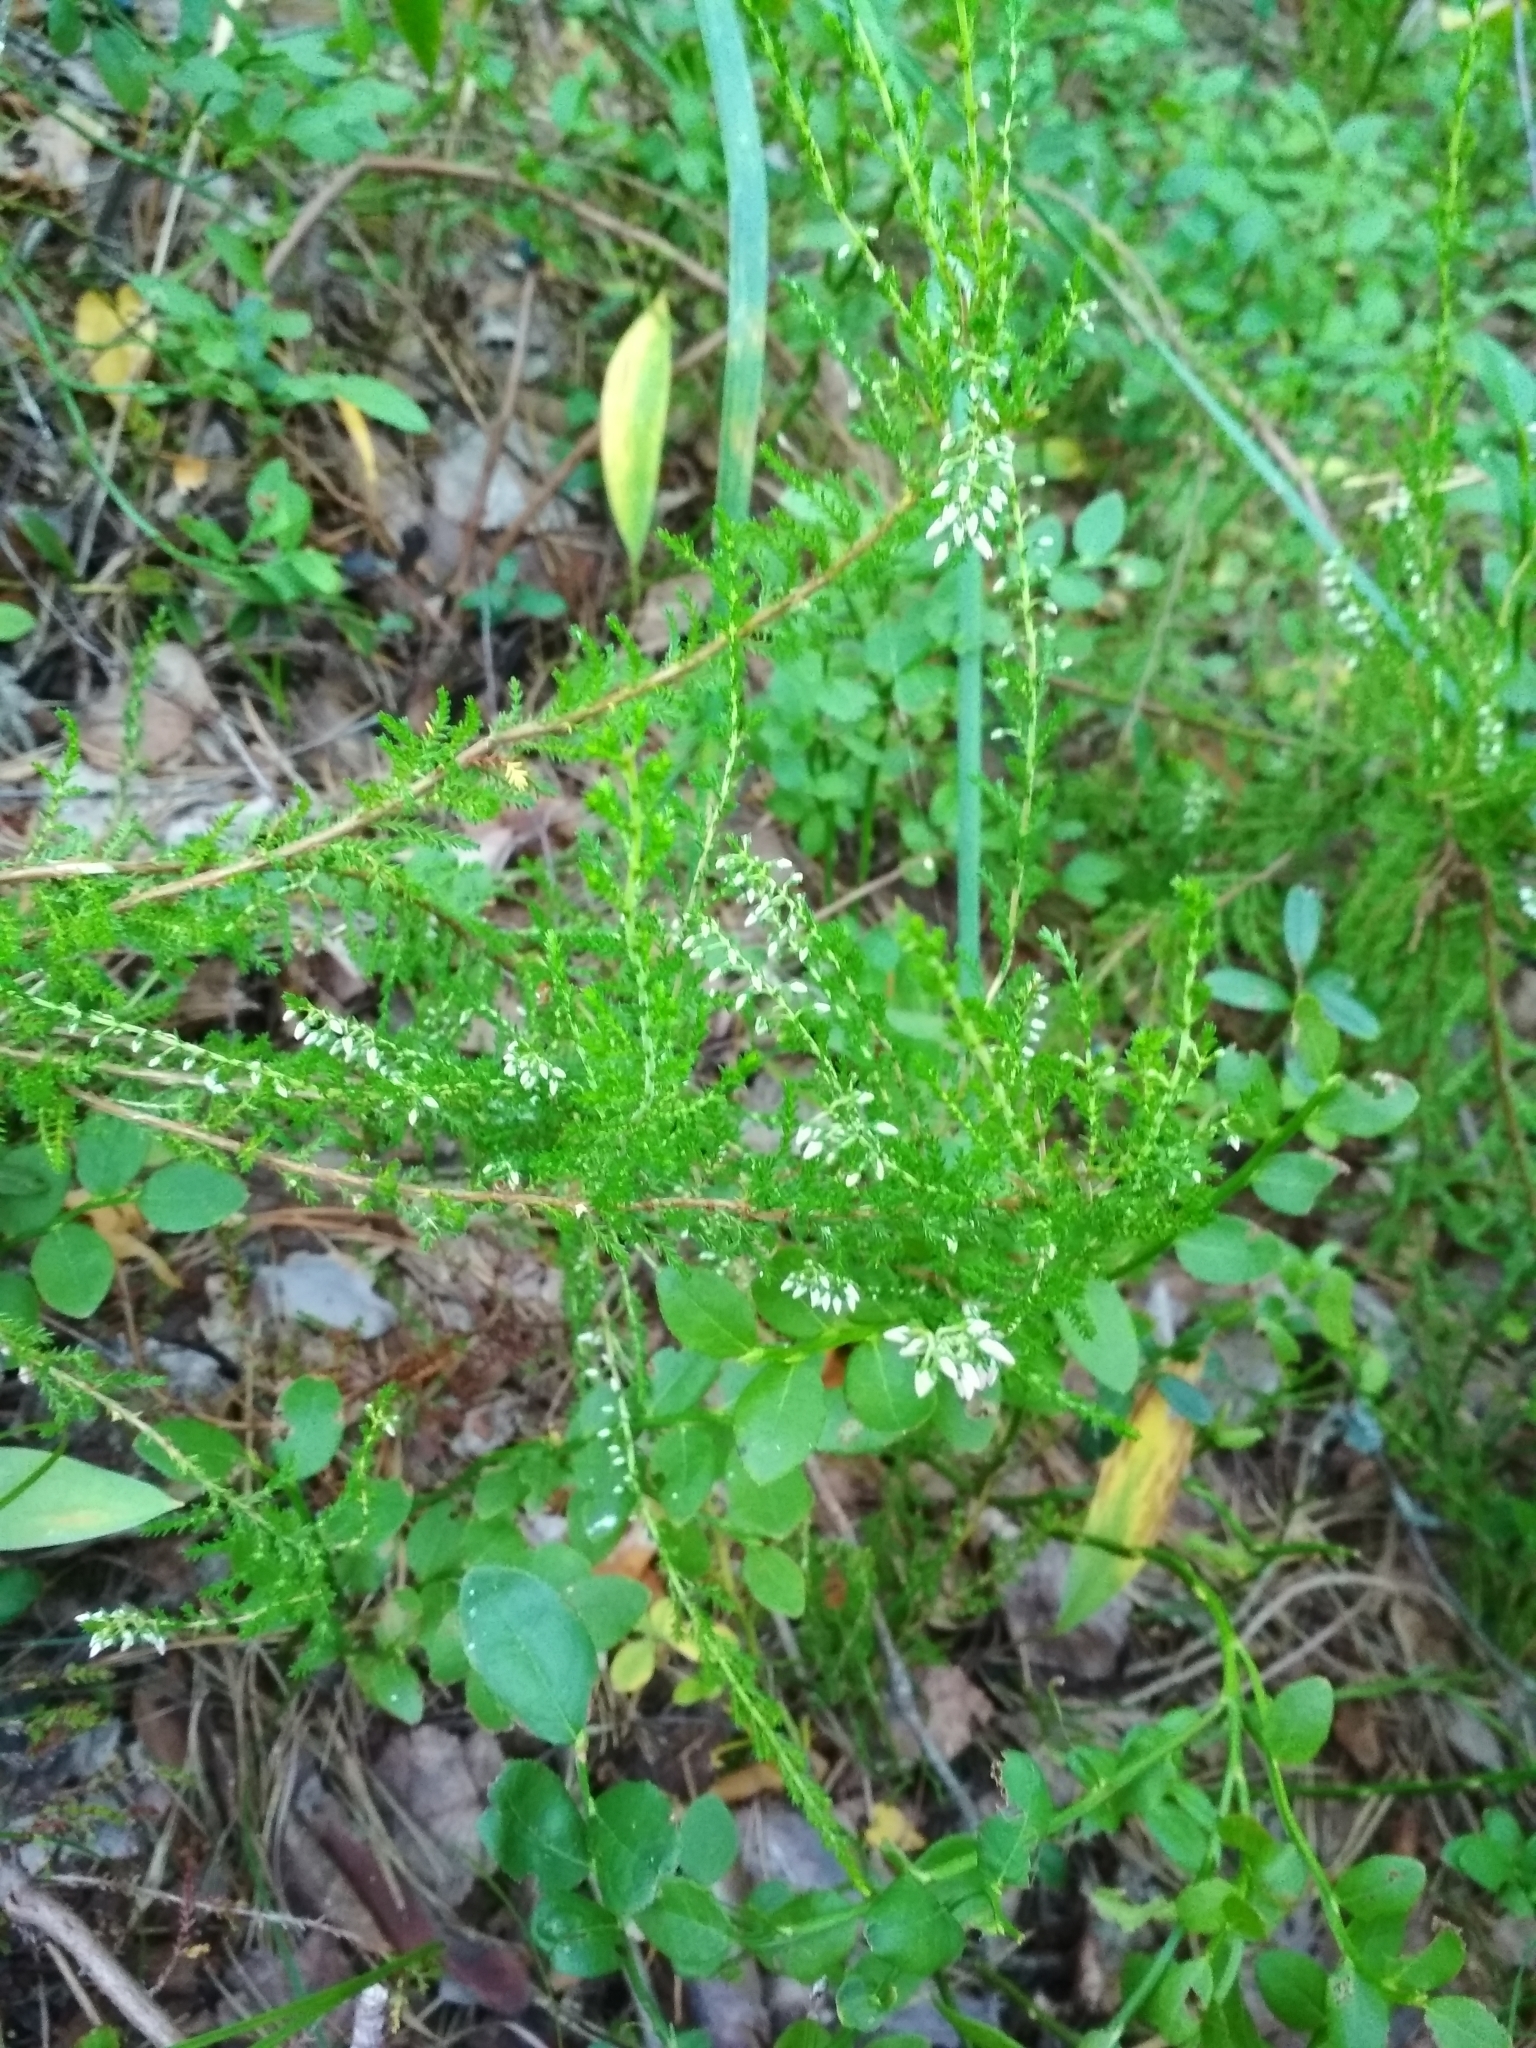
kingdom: Plantae
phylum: Tracheophyta
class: Magnoliopsida
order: Ericales
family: Ericaceae
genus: Calluna
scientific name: Calluna vulgaris
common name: Heather
